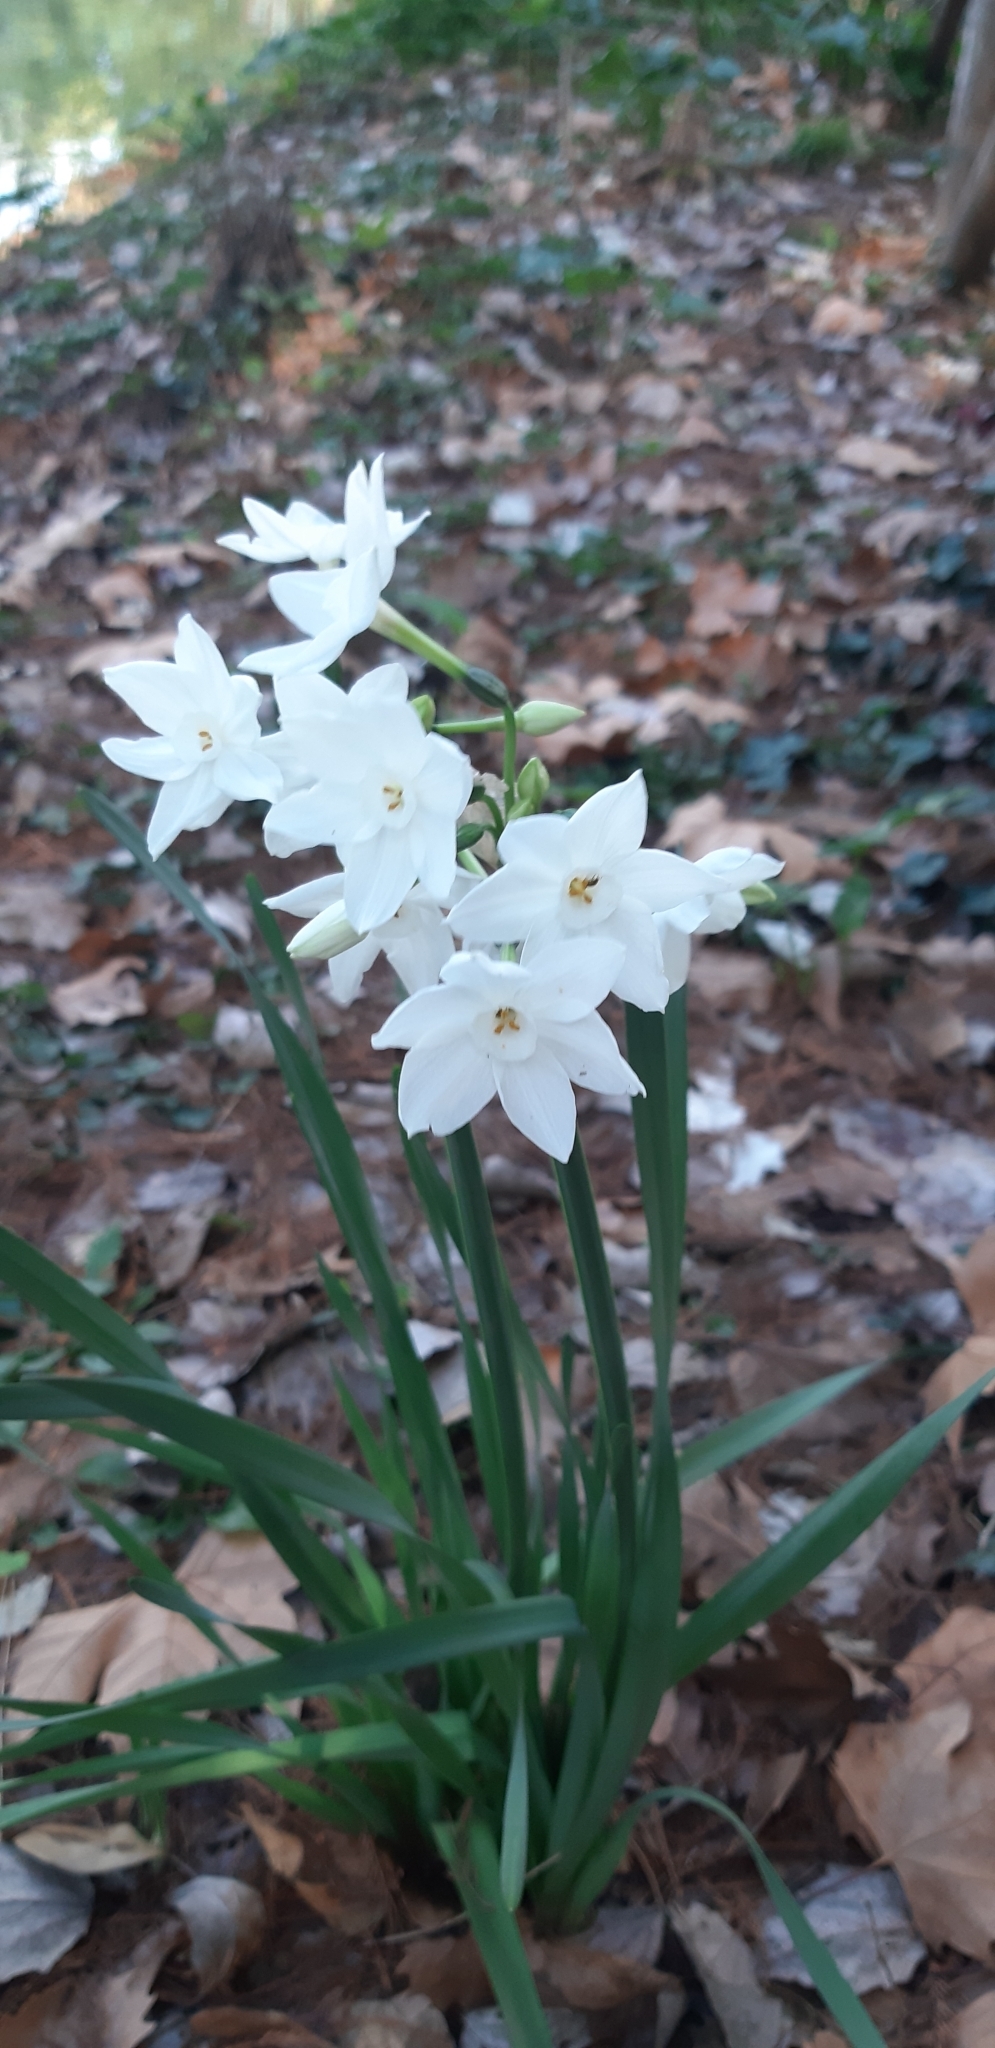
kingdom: Plantae
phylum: Tracheophyta
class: Liliopsida
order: Asparagales
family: Amaryllidaceae
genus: Narcissus
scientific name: Narcissus papyraceus
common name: Paper-white daffodil
